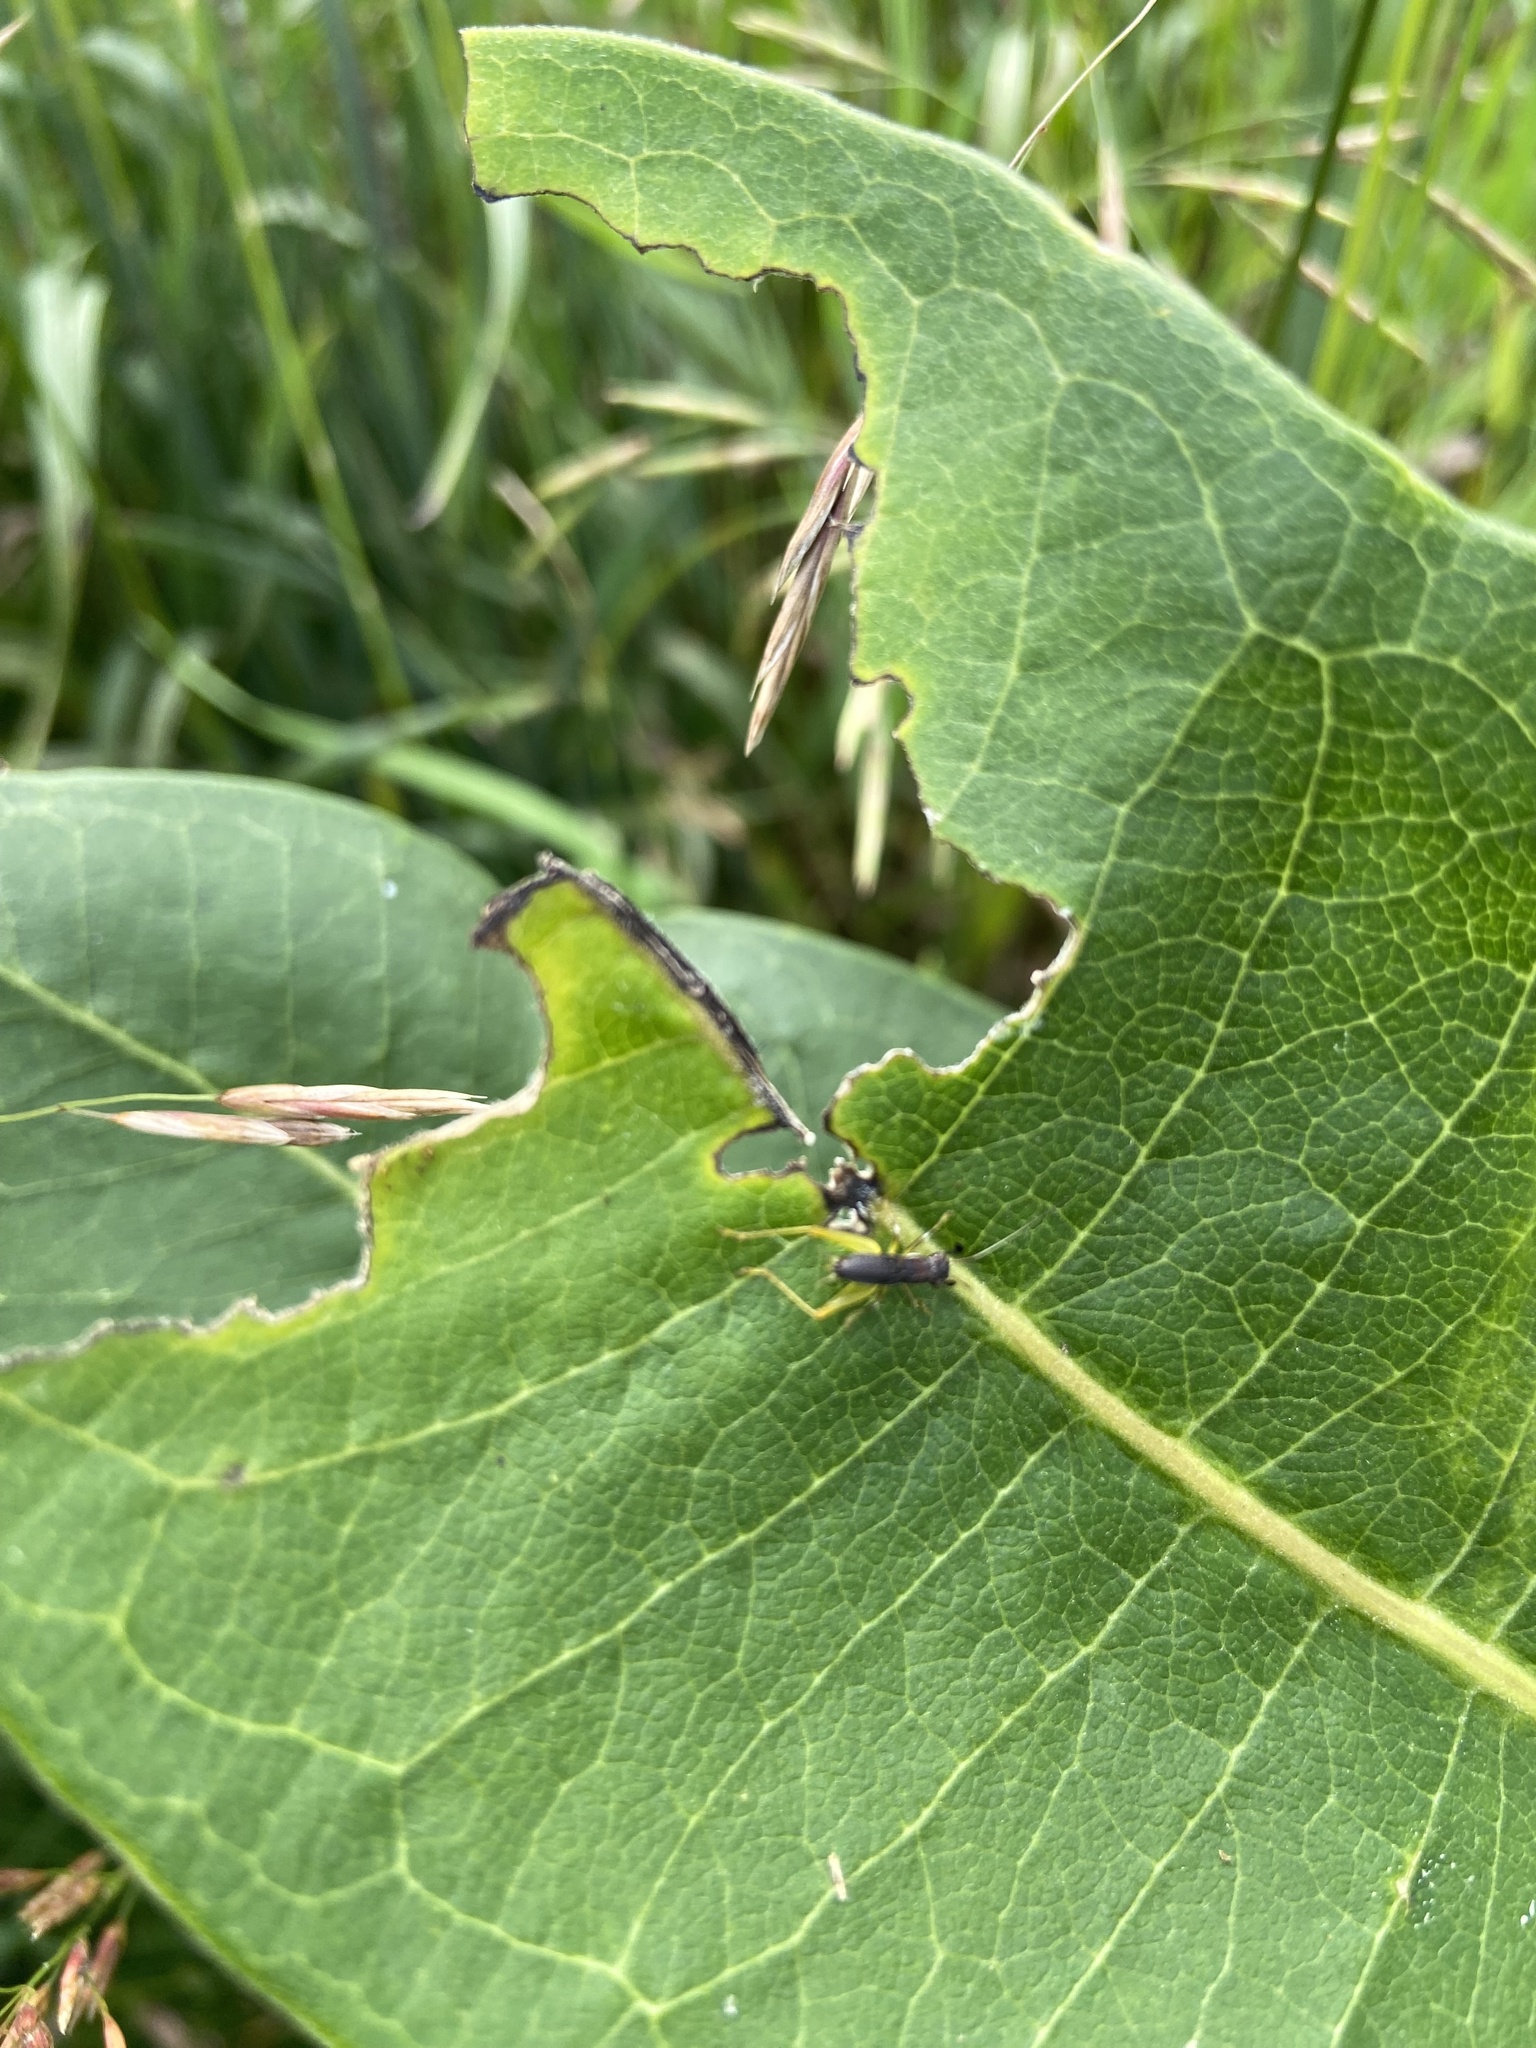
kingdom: Animalia
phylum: Arthropoda
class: Insecta
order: Orthoptera
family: Trigonidiidae
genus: Phyllopalpus
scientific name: Phyllopalpus pulchellus
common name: Handsome trig
